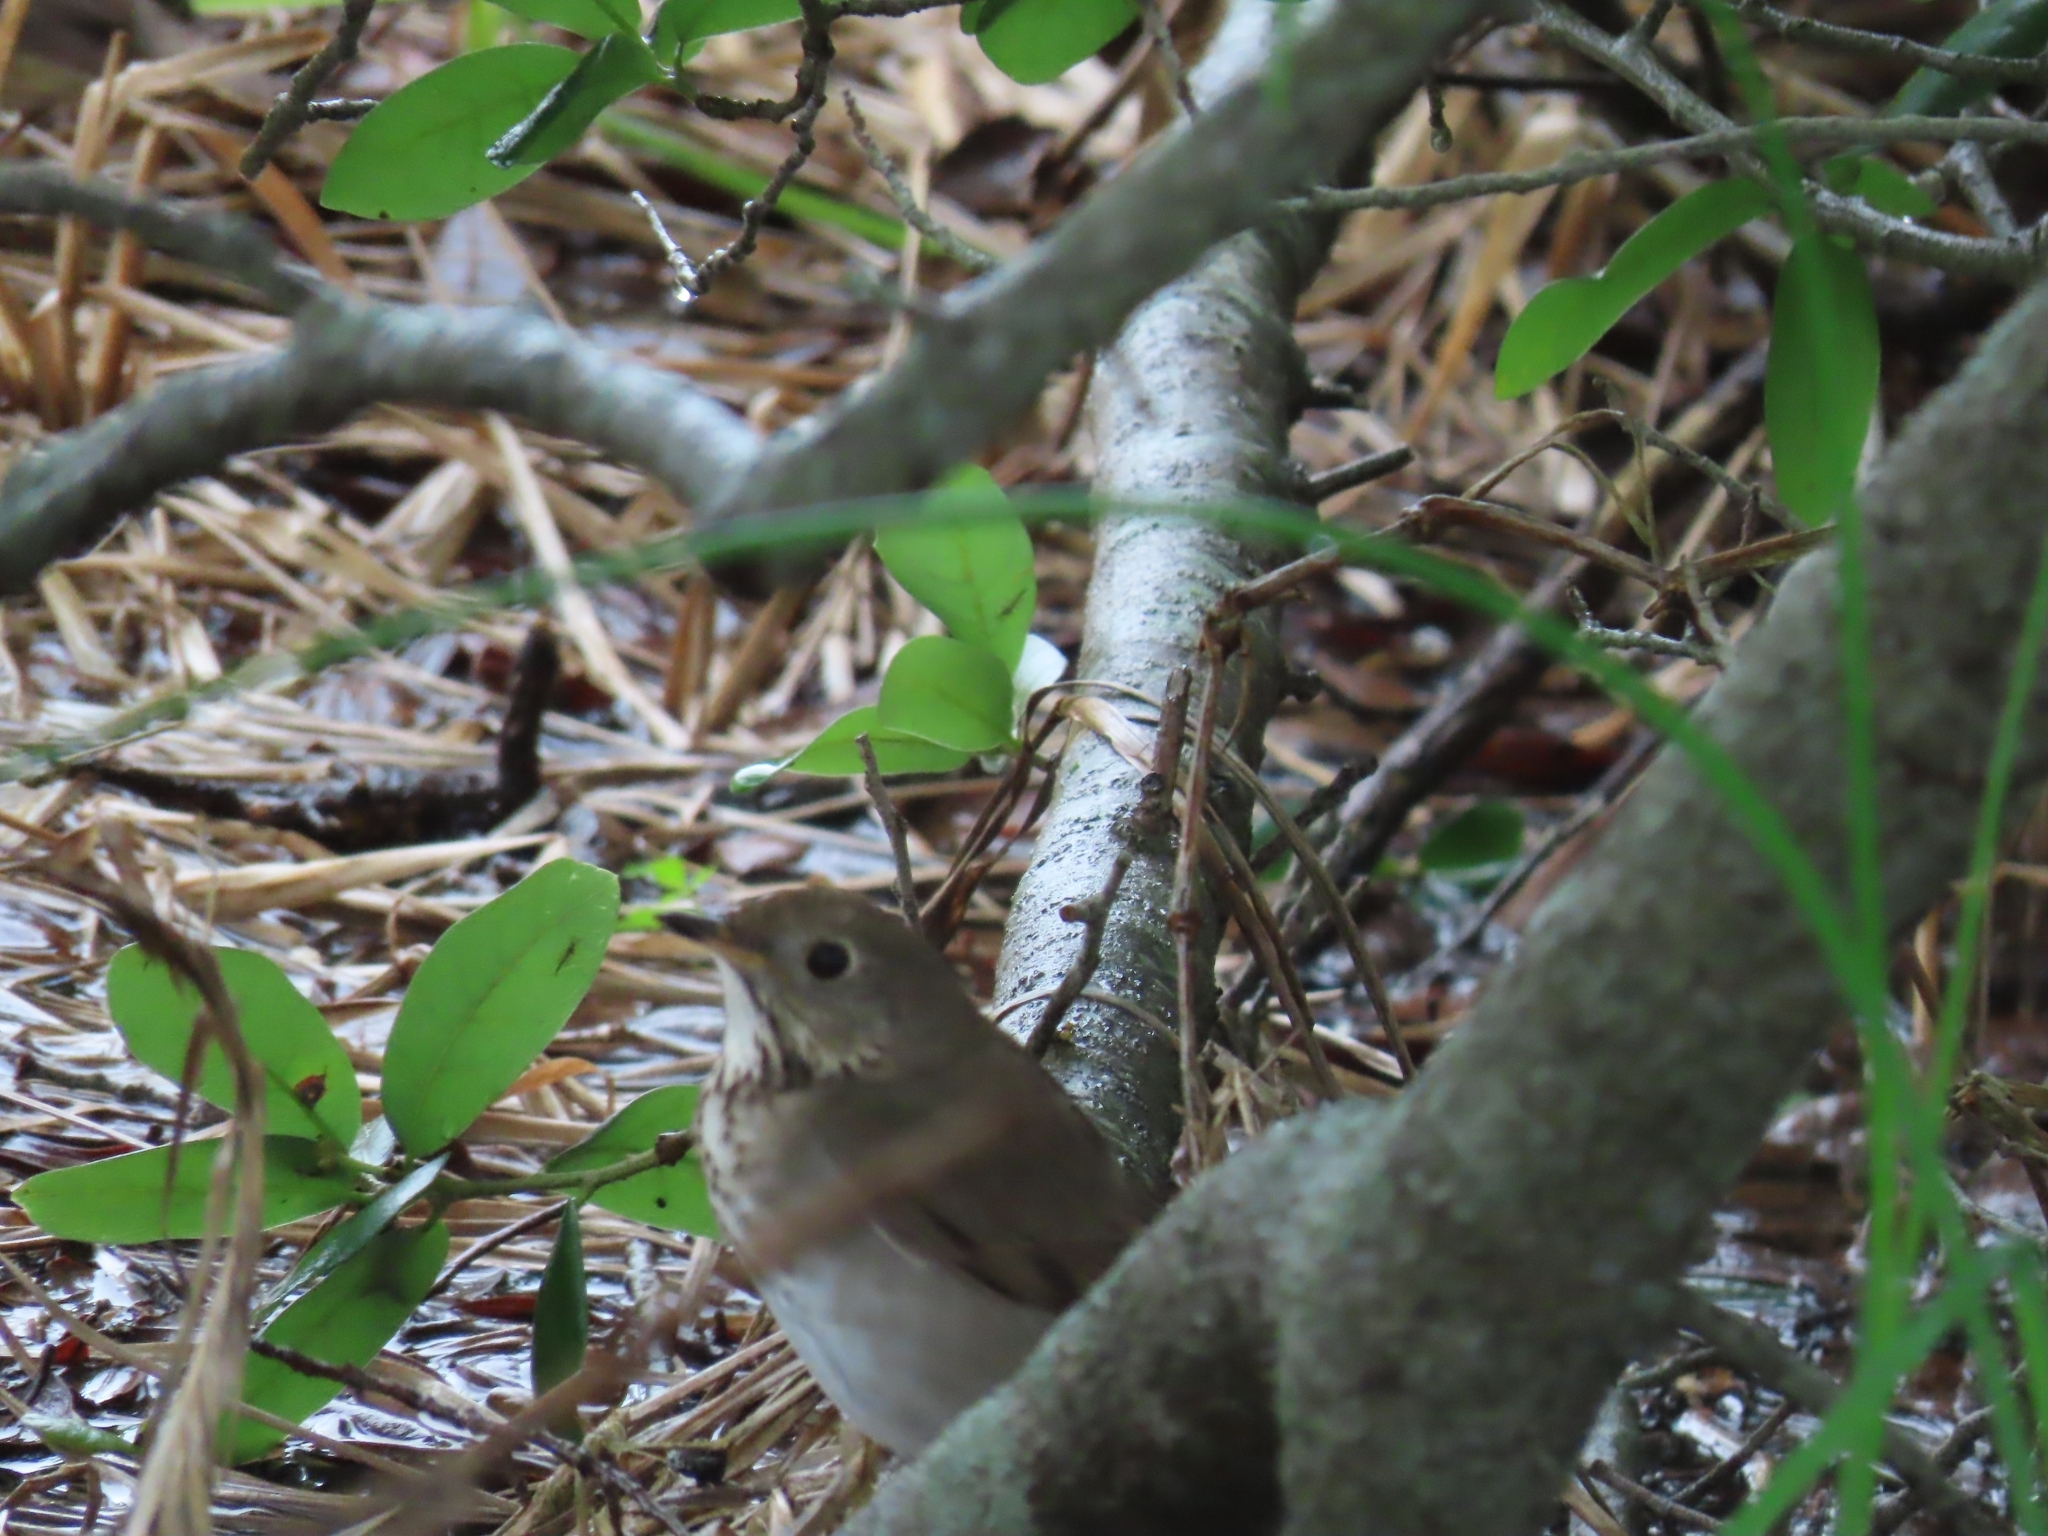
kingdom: Animalia
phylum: Chordata
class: Aves
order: Passeriformes
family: Turdidae
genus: Catharus
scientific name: Catharus minimus
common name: Grey-cheeked thrush
